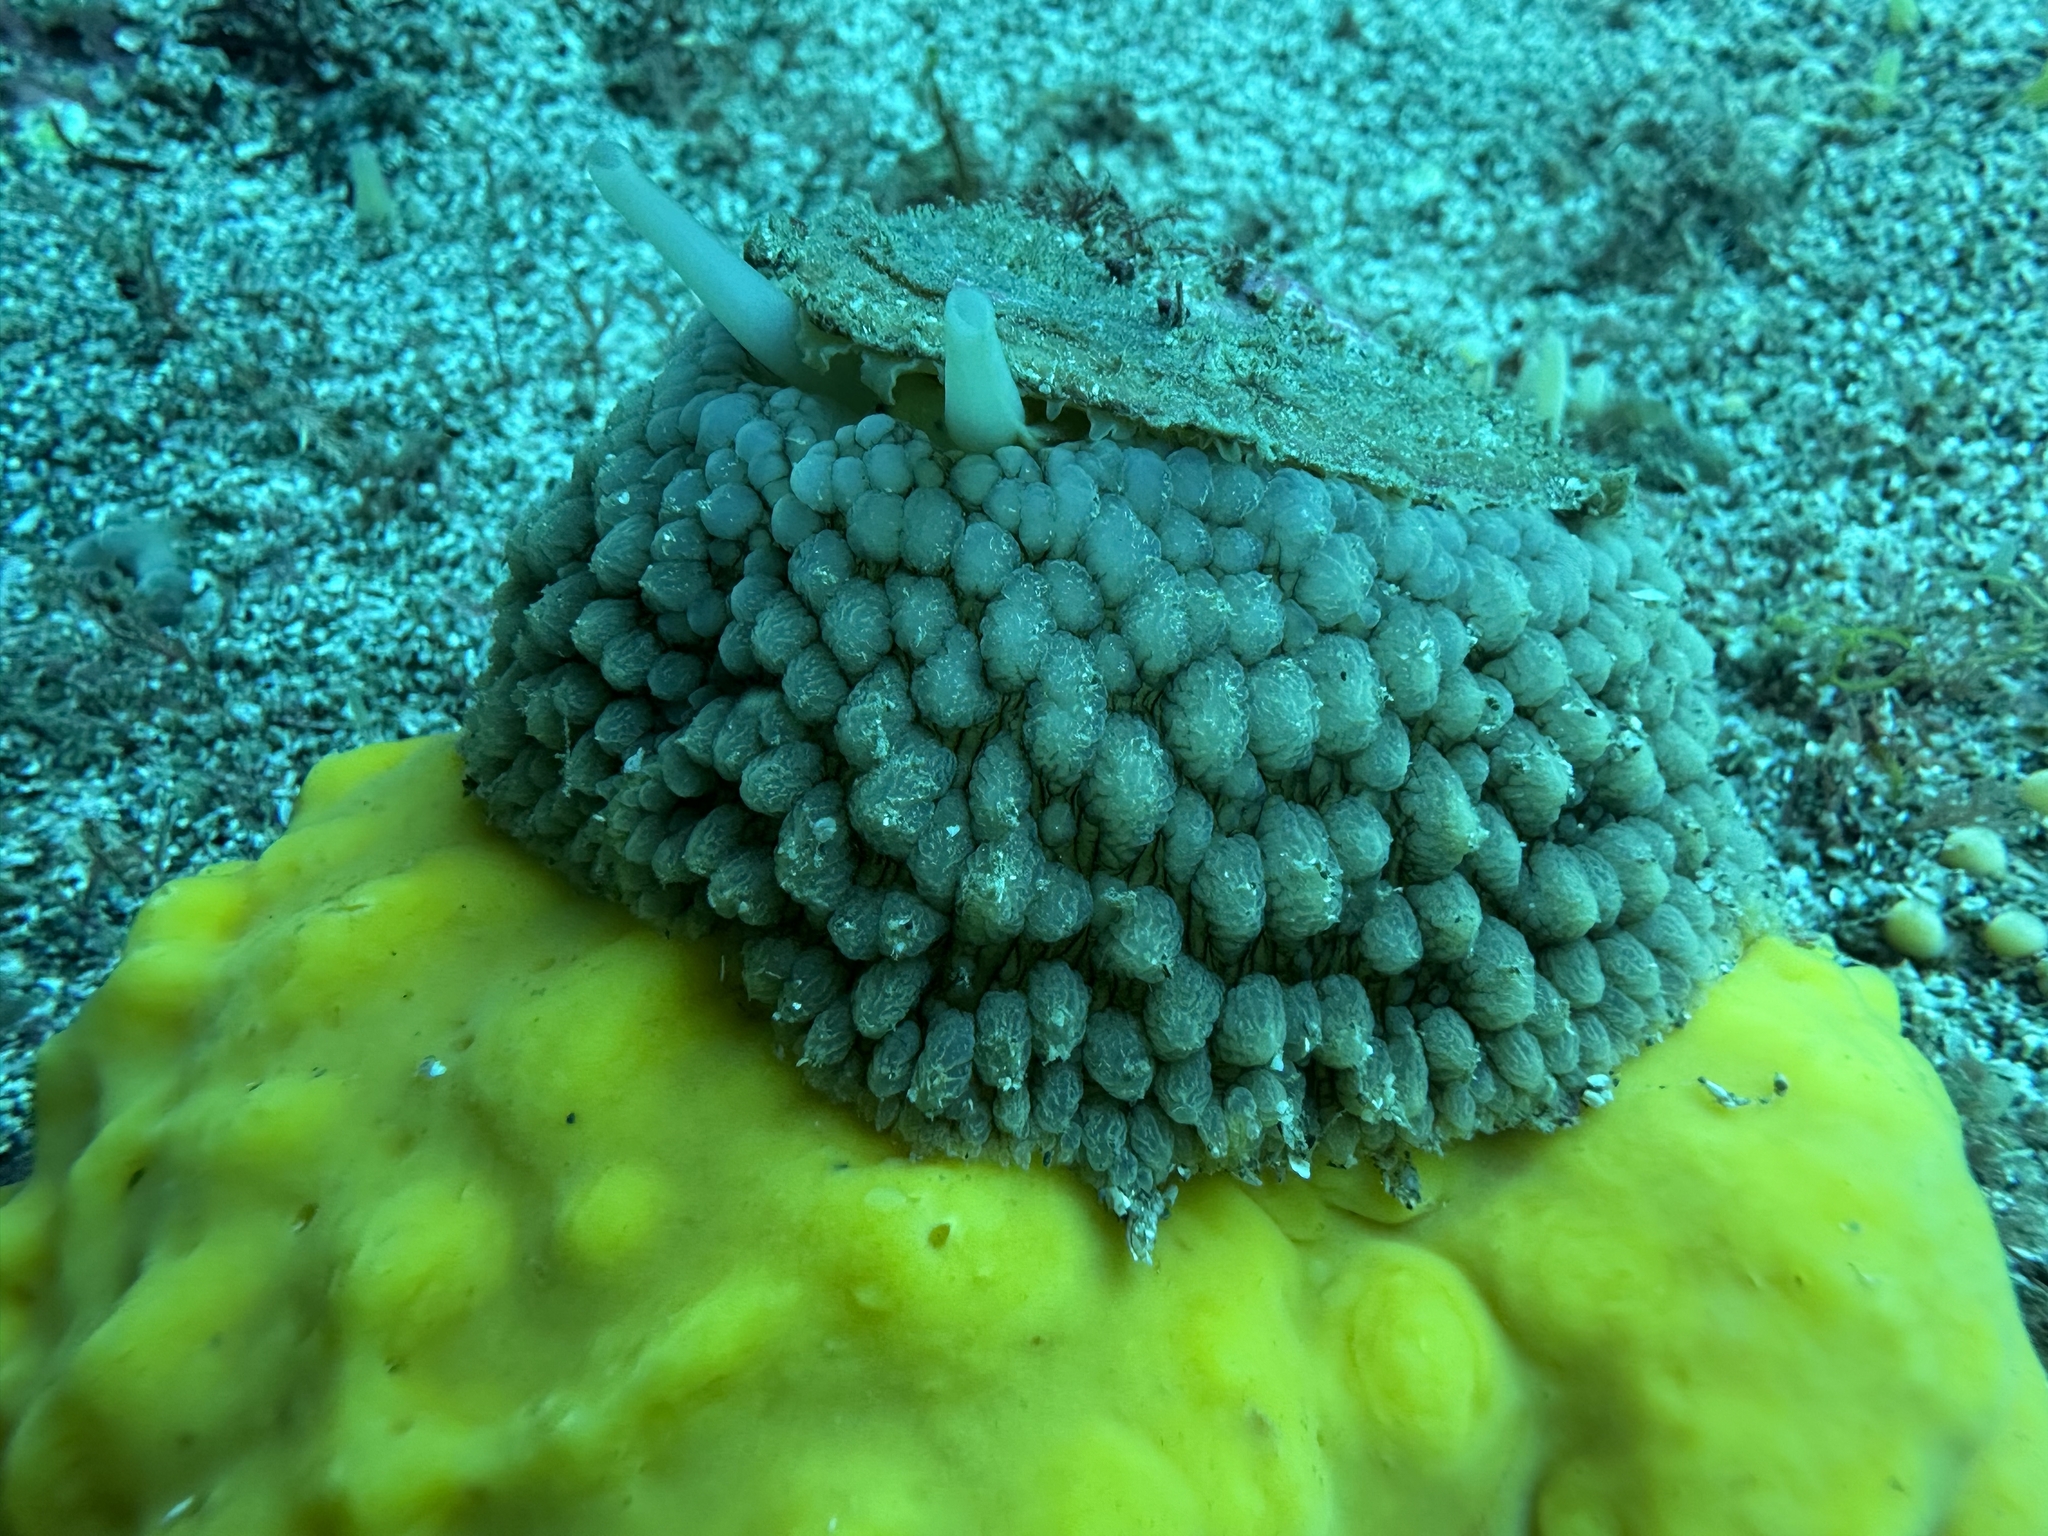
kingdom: Animalia
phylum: Mollusca
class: Gastropoda
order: Umbraculida
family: Umbraculidae
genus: Umbraculum
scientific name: Umbraculum umbraculum
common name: Atlantic umbrella slug
